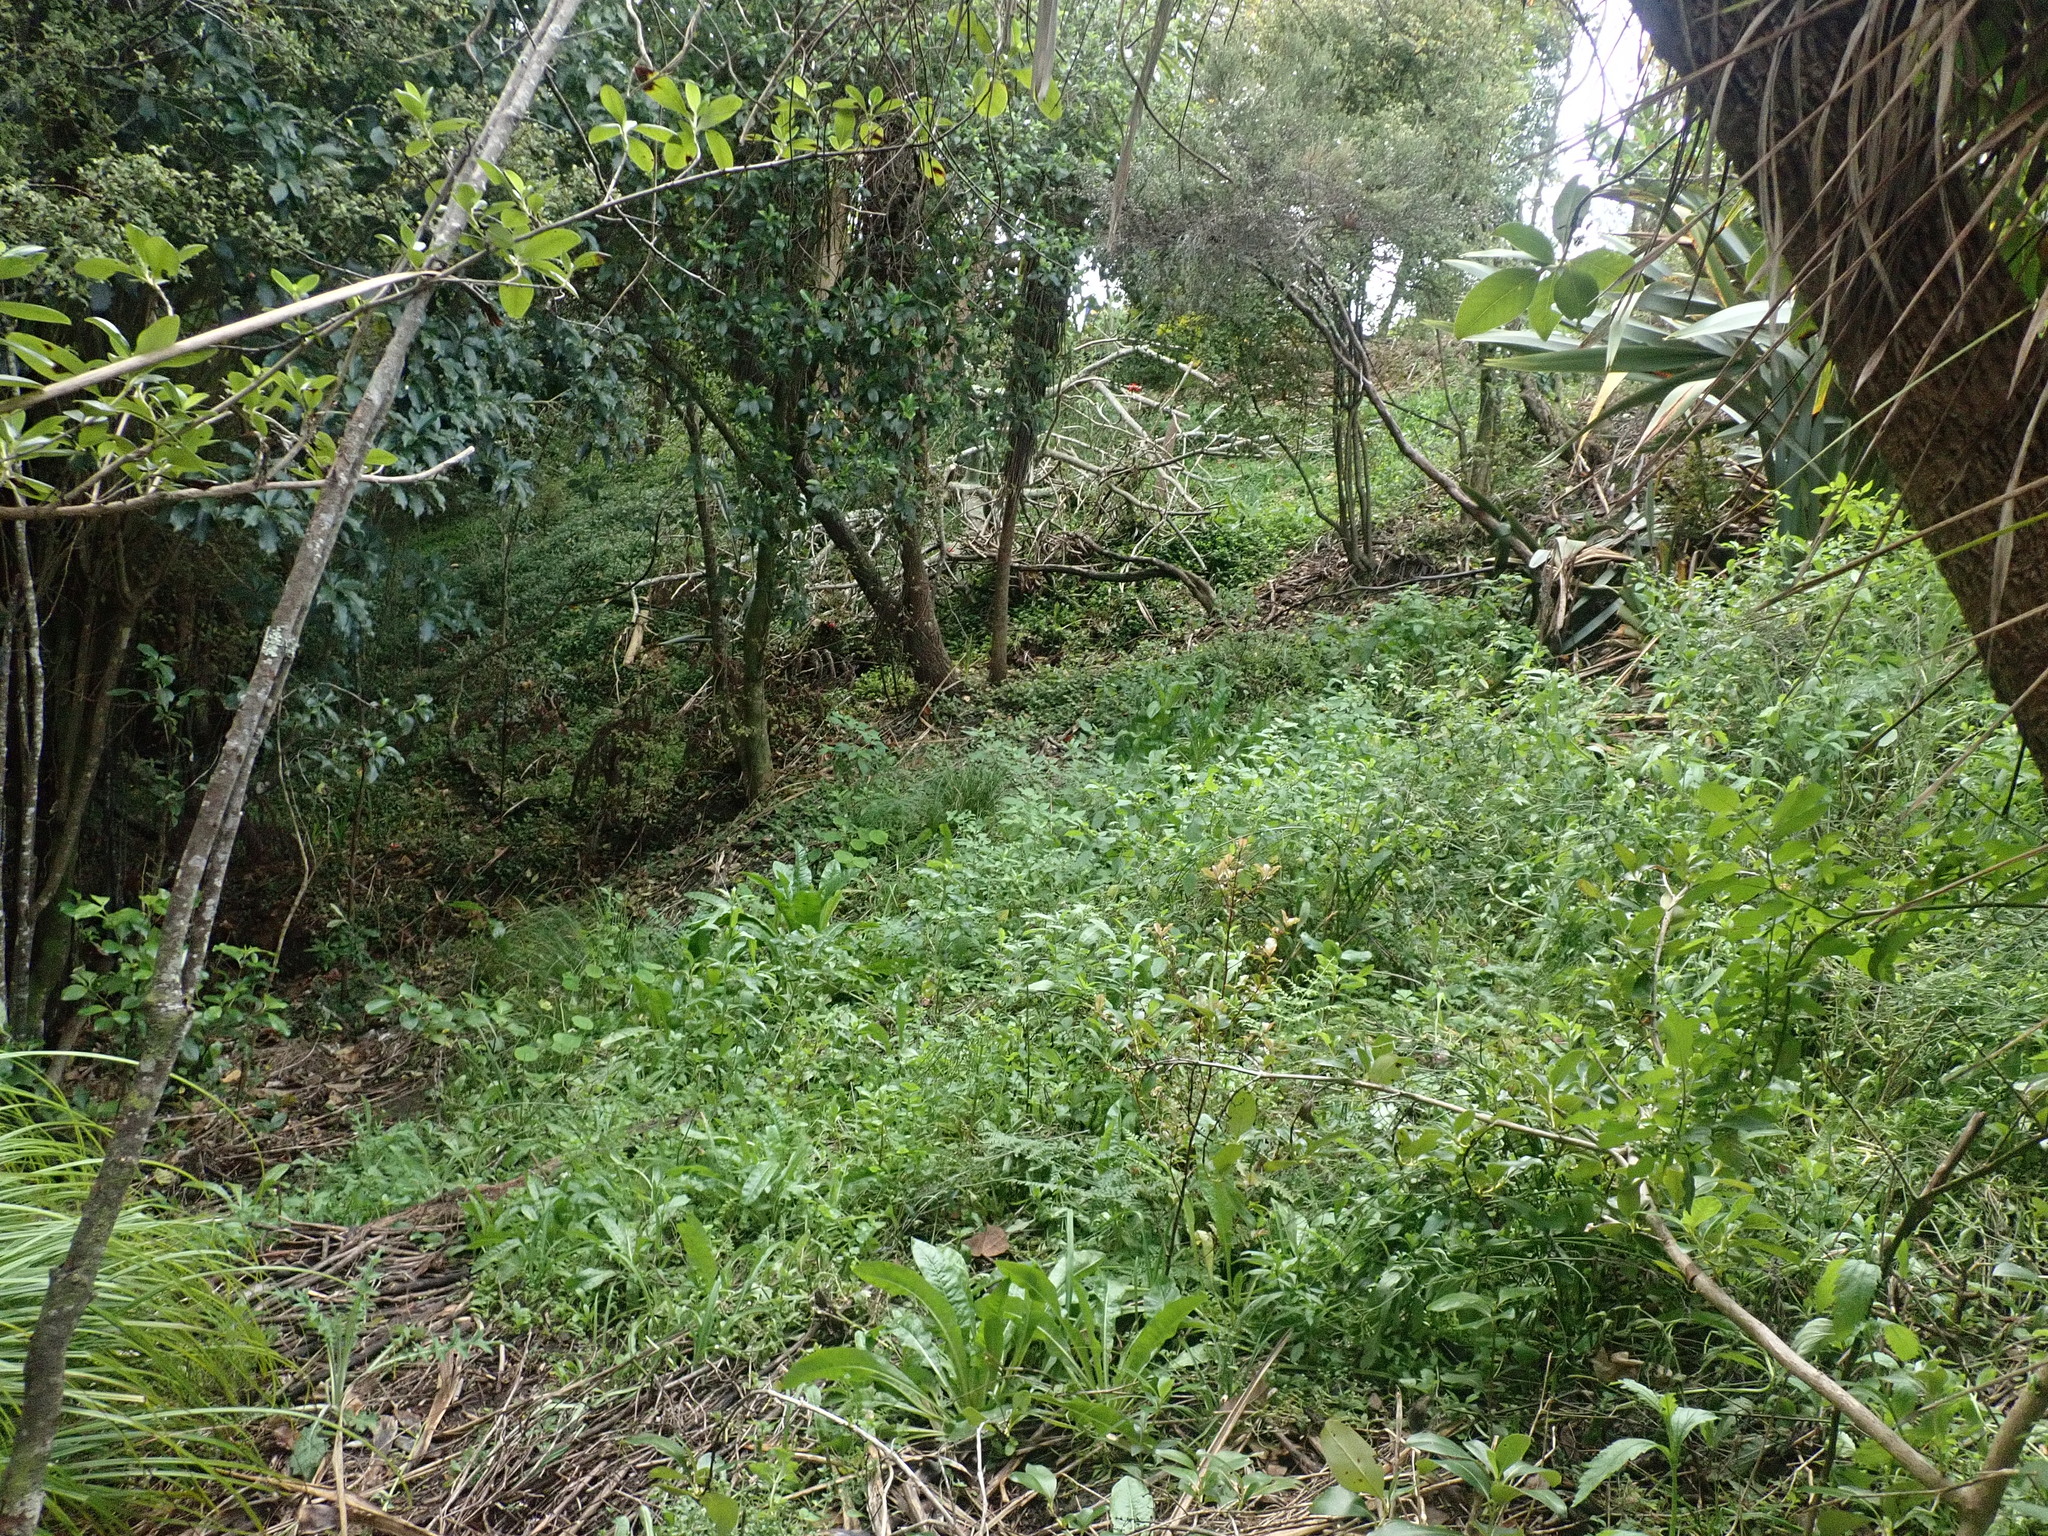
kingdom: Plantae
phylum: Tracheophyta
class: Magnoliopsida
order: Asterales
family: Asteraceae
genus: Helminthotheca
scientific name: Helminthotheca echioides
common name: Ox-tongue
